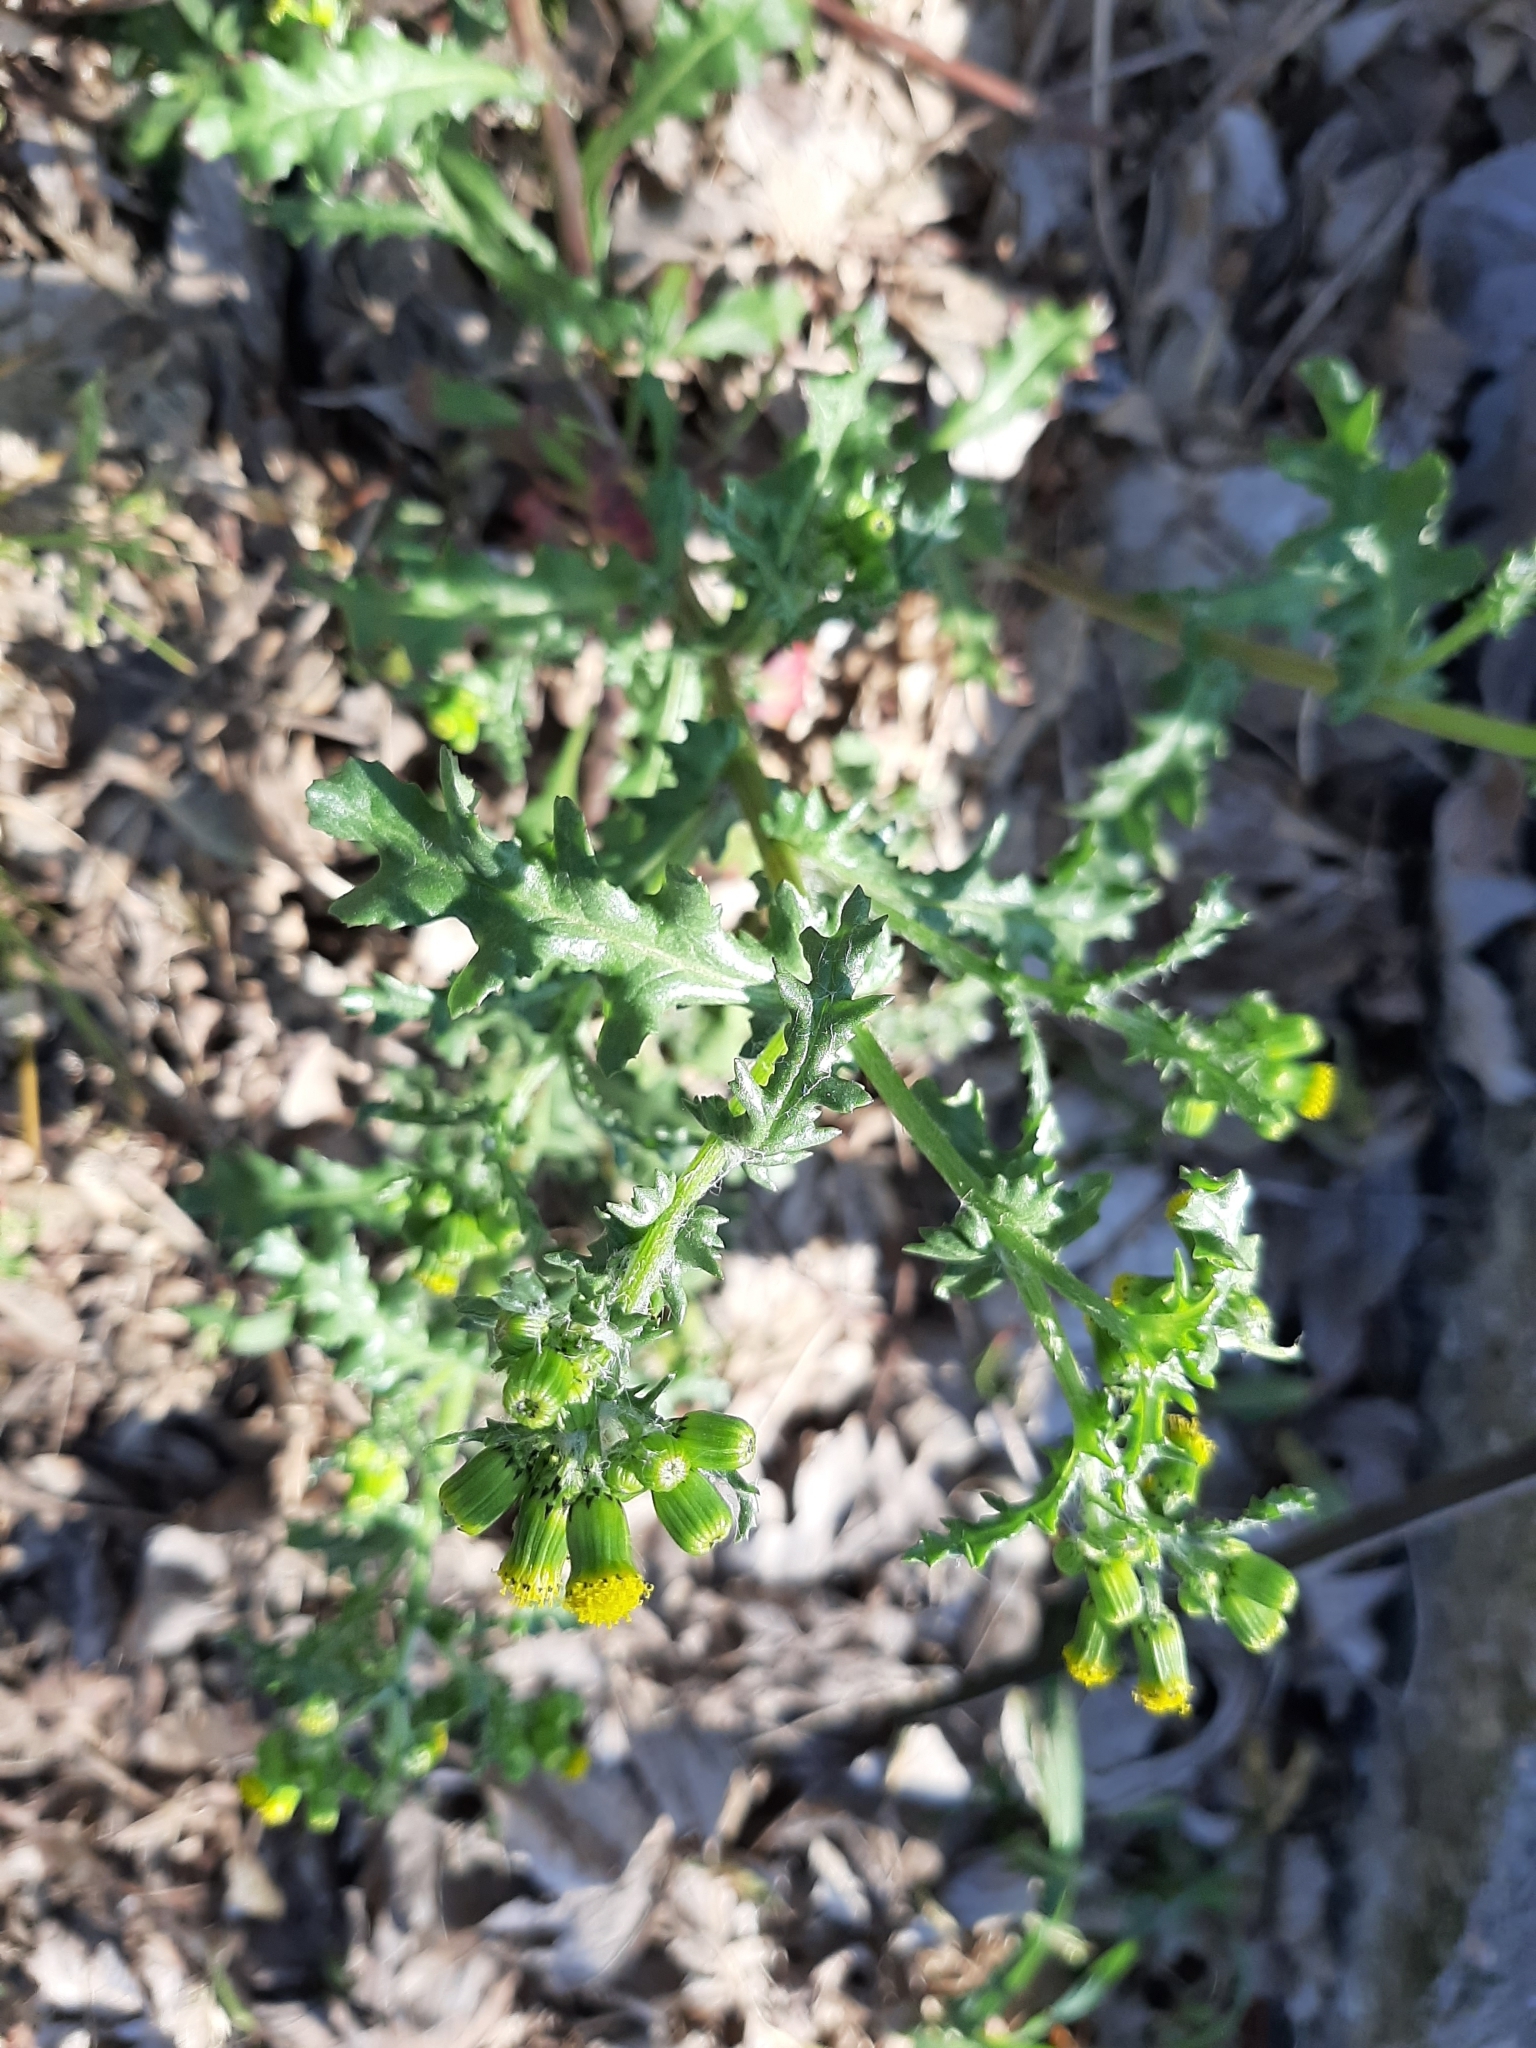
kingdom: Plantae
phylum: Tracheophyta
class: Magnoliopsida
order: Asterales
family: Asteraceae
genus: Senecio
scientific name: Senecio vulgaris
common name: Old-man-in-the-spring
